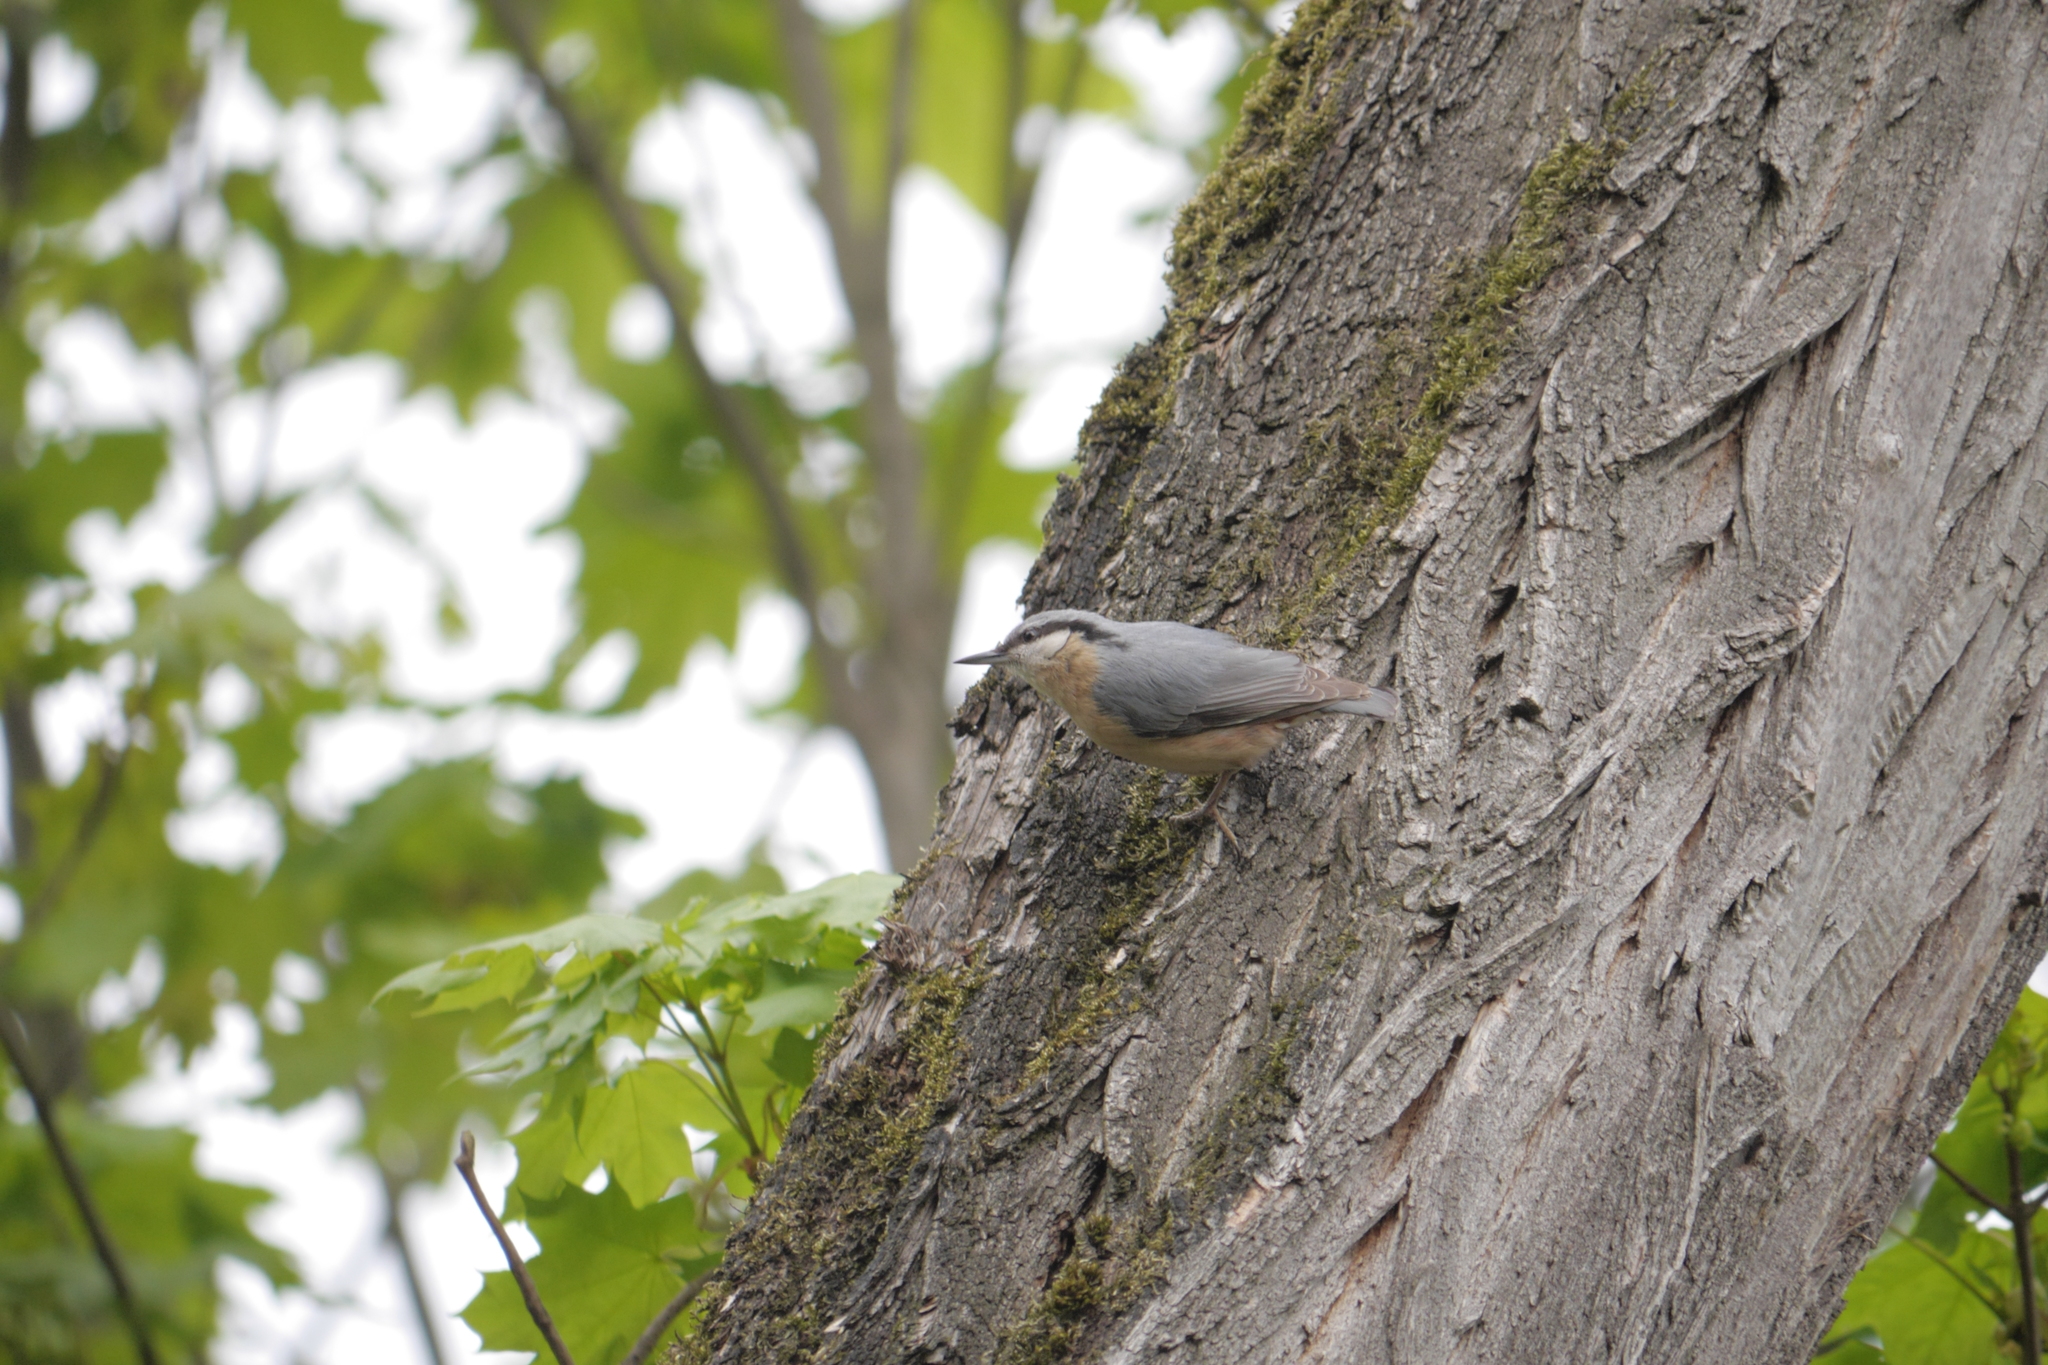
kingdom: Animalia
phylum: Chordata
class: Aves
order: Passeriformes
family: Sittidae
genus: Sitta
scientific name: Sitta europaea
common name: Eurasian nuthatch
